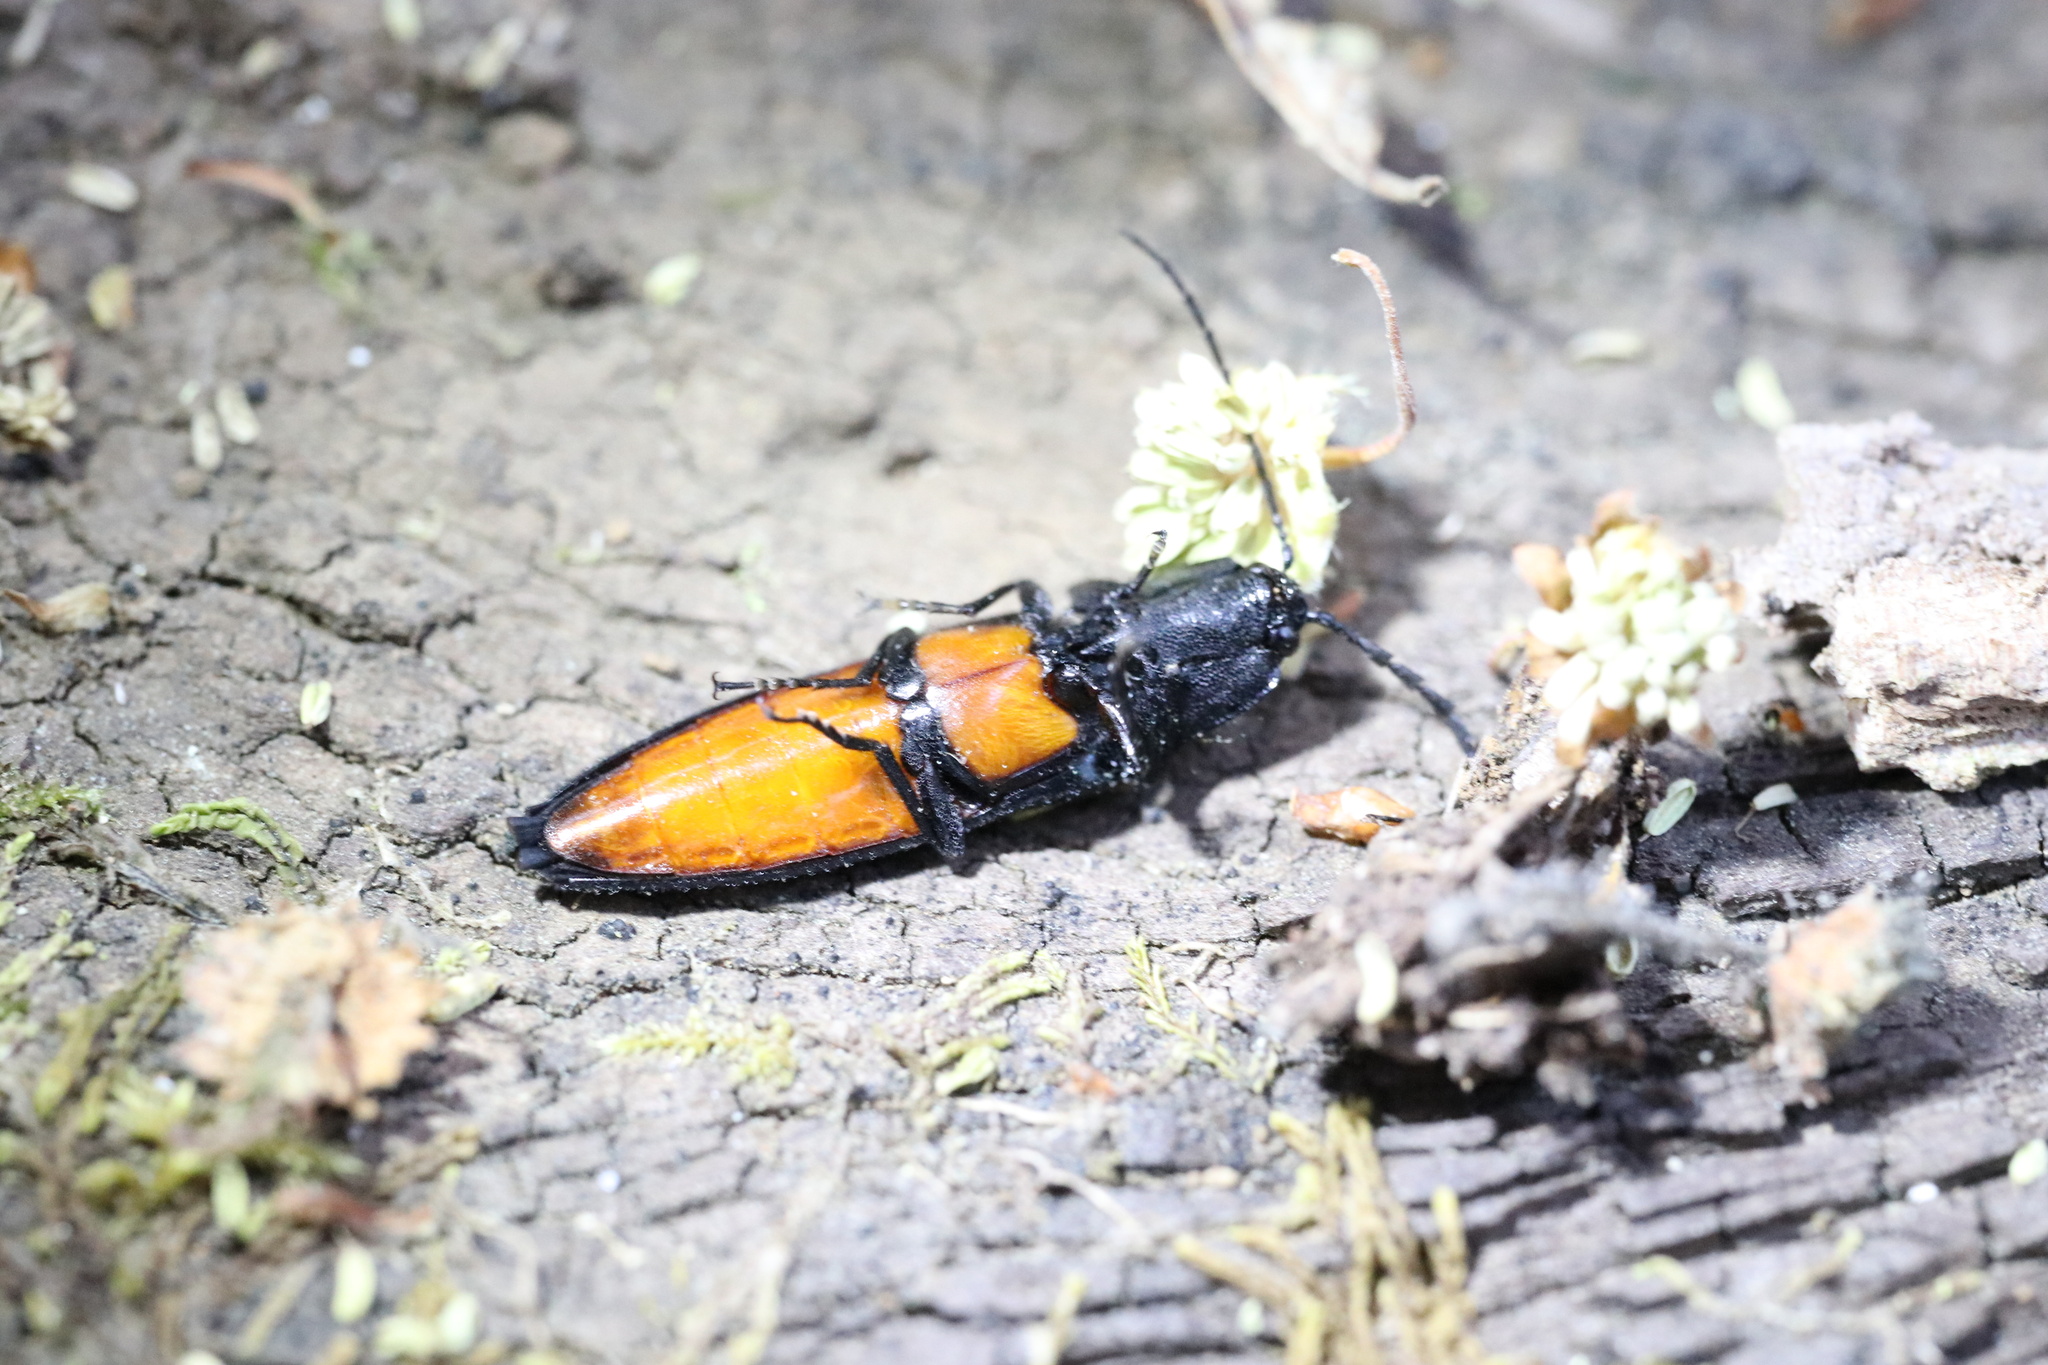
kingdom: Animalia
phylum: Arthropoda
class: Insecta
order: Coleoptera
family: Elateridae
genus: Tibionema
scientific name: Tibionema
